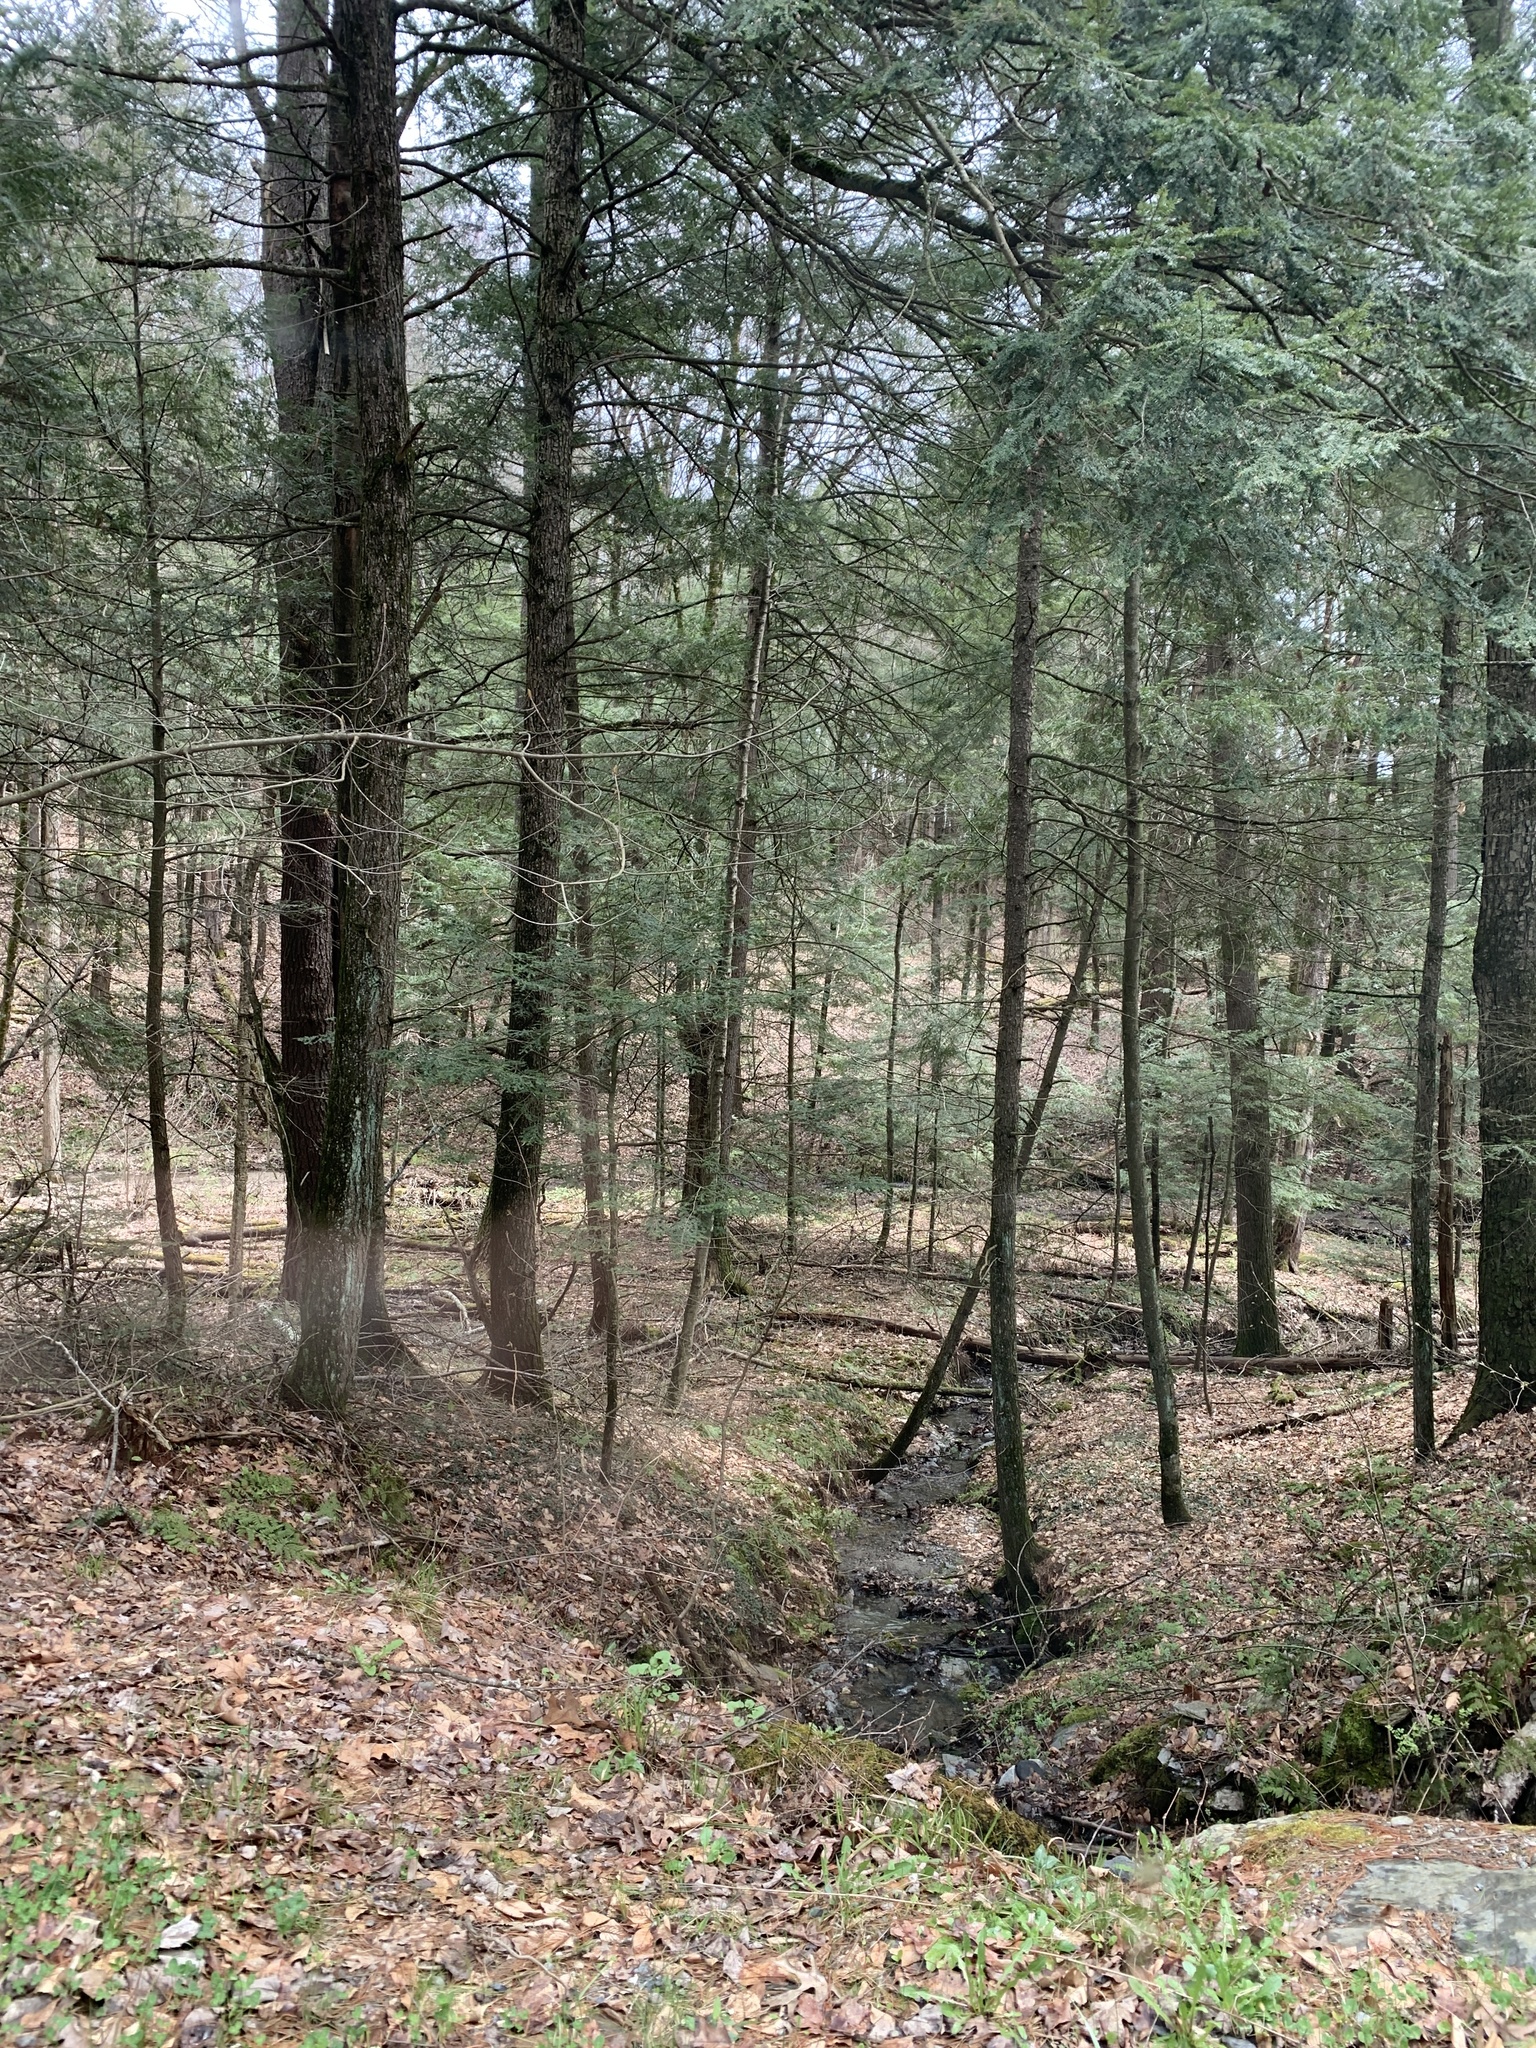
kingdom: Plantae
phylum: Tracheophyta
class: Pinopsida
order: Pinales
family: Pinaceae
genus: Tsuga
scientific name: Tsuga canadensis
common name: Eastern hemlock
